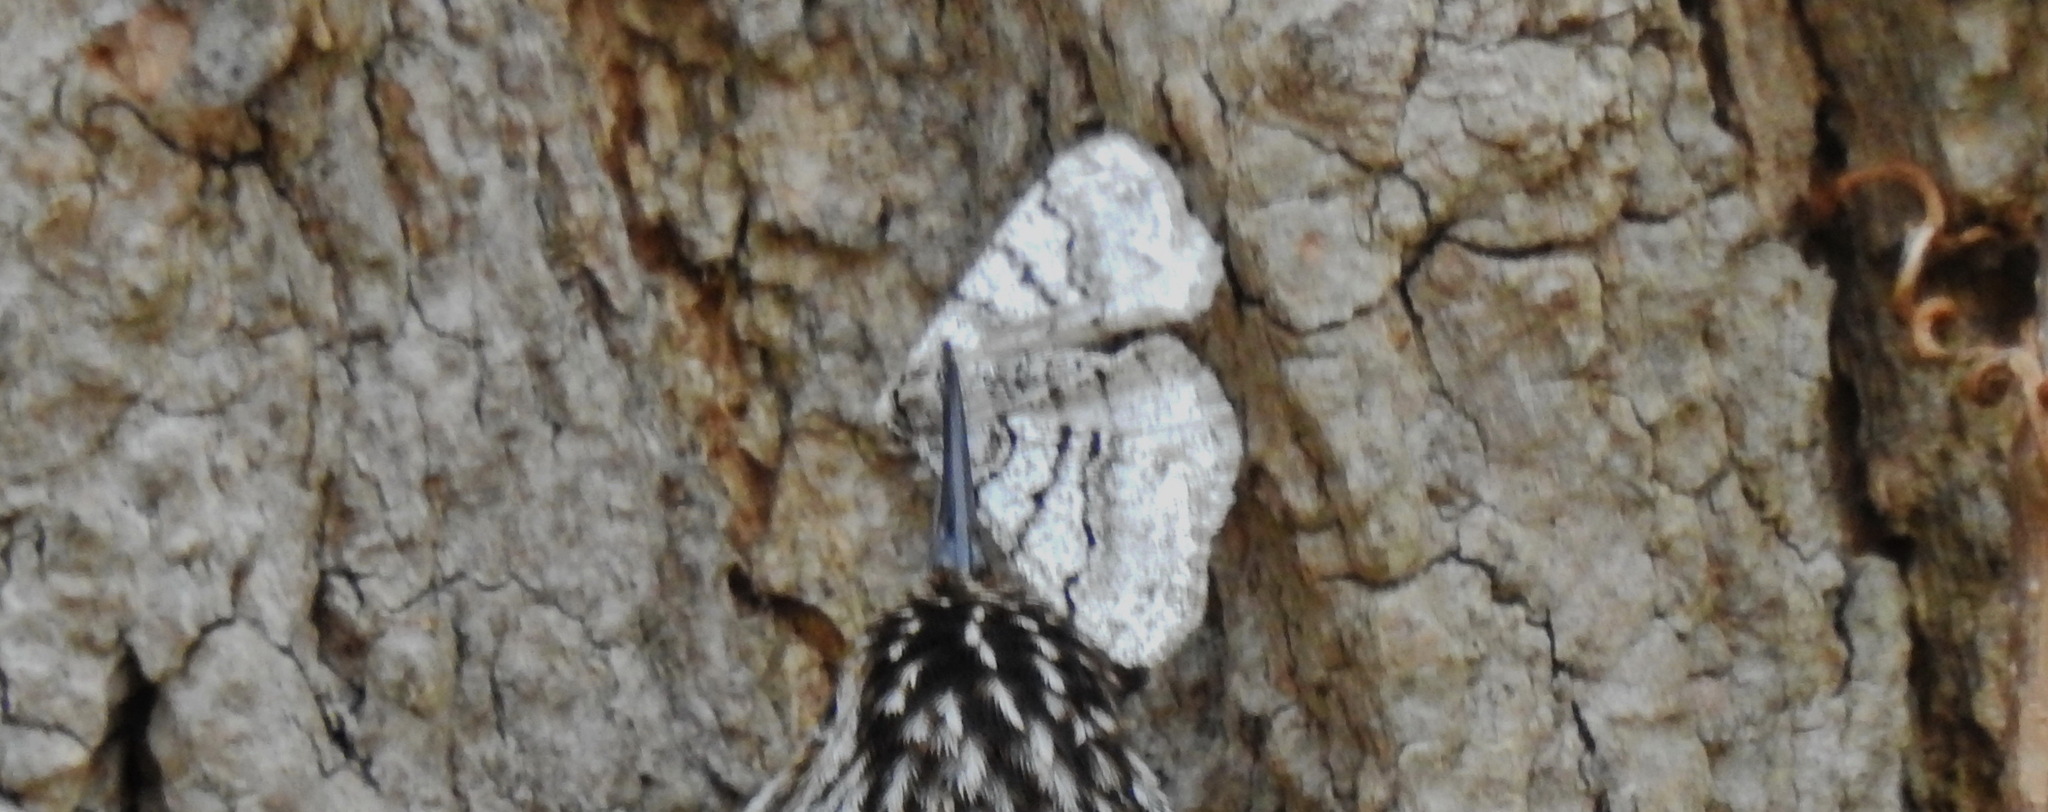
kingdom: Animalia
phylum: Arthropoda
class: Insecta
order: Lepidoptera
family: Geometridae
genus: Phigalia
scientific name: Phigalia titea
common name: Spiny looper
